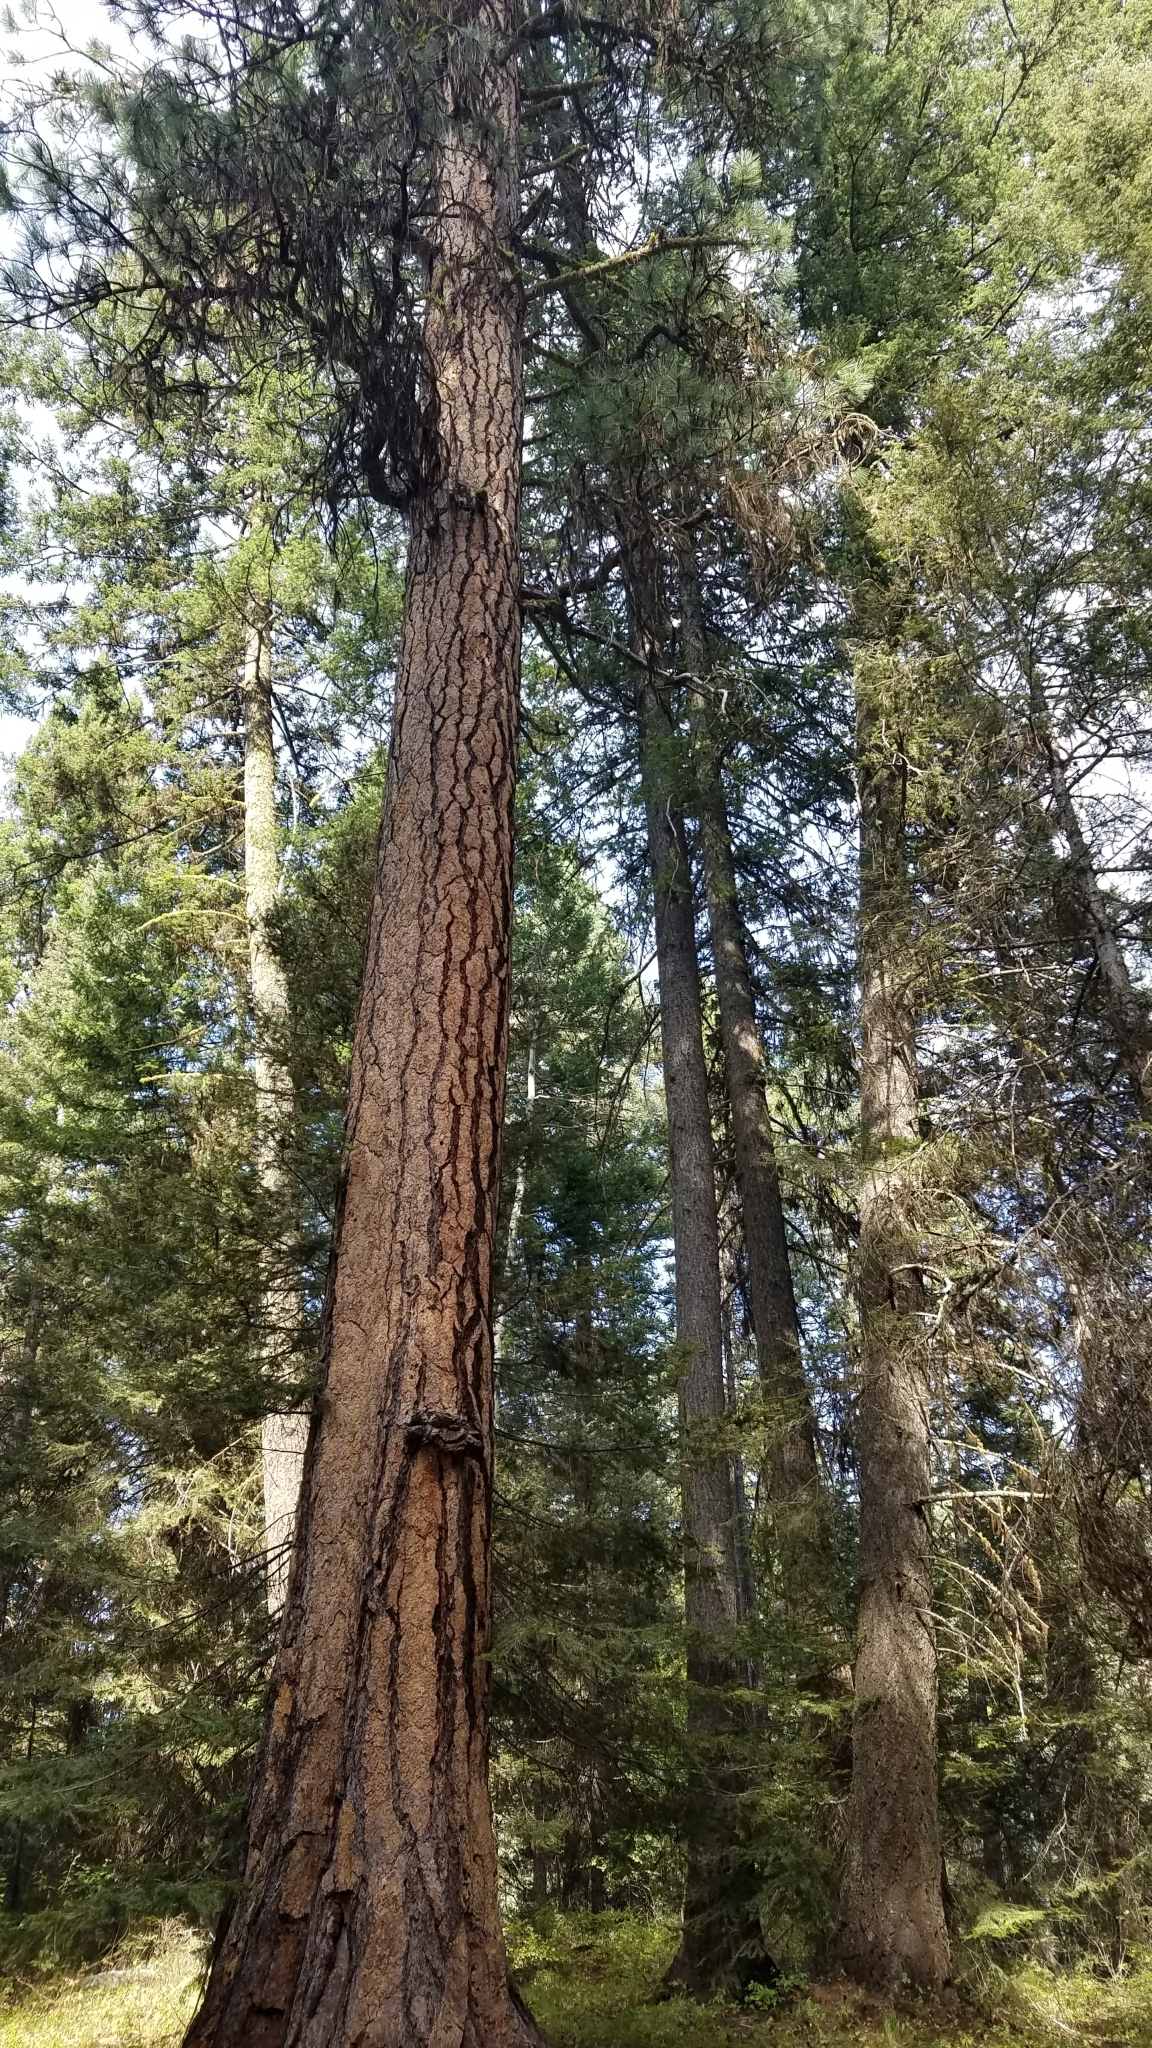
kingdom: Plantae
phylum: Tracheophyta
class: Pinopsida
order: Pinales
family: Pinaceae
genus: Pinus
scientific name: Pinus ponderosa
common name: Western yellow-pine
